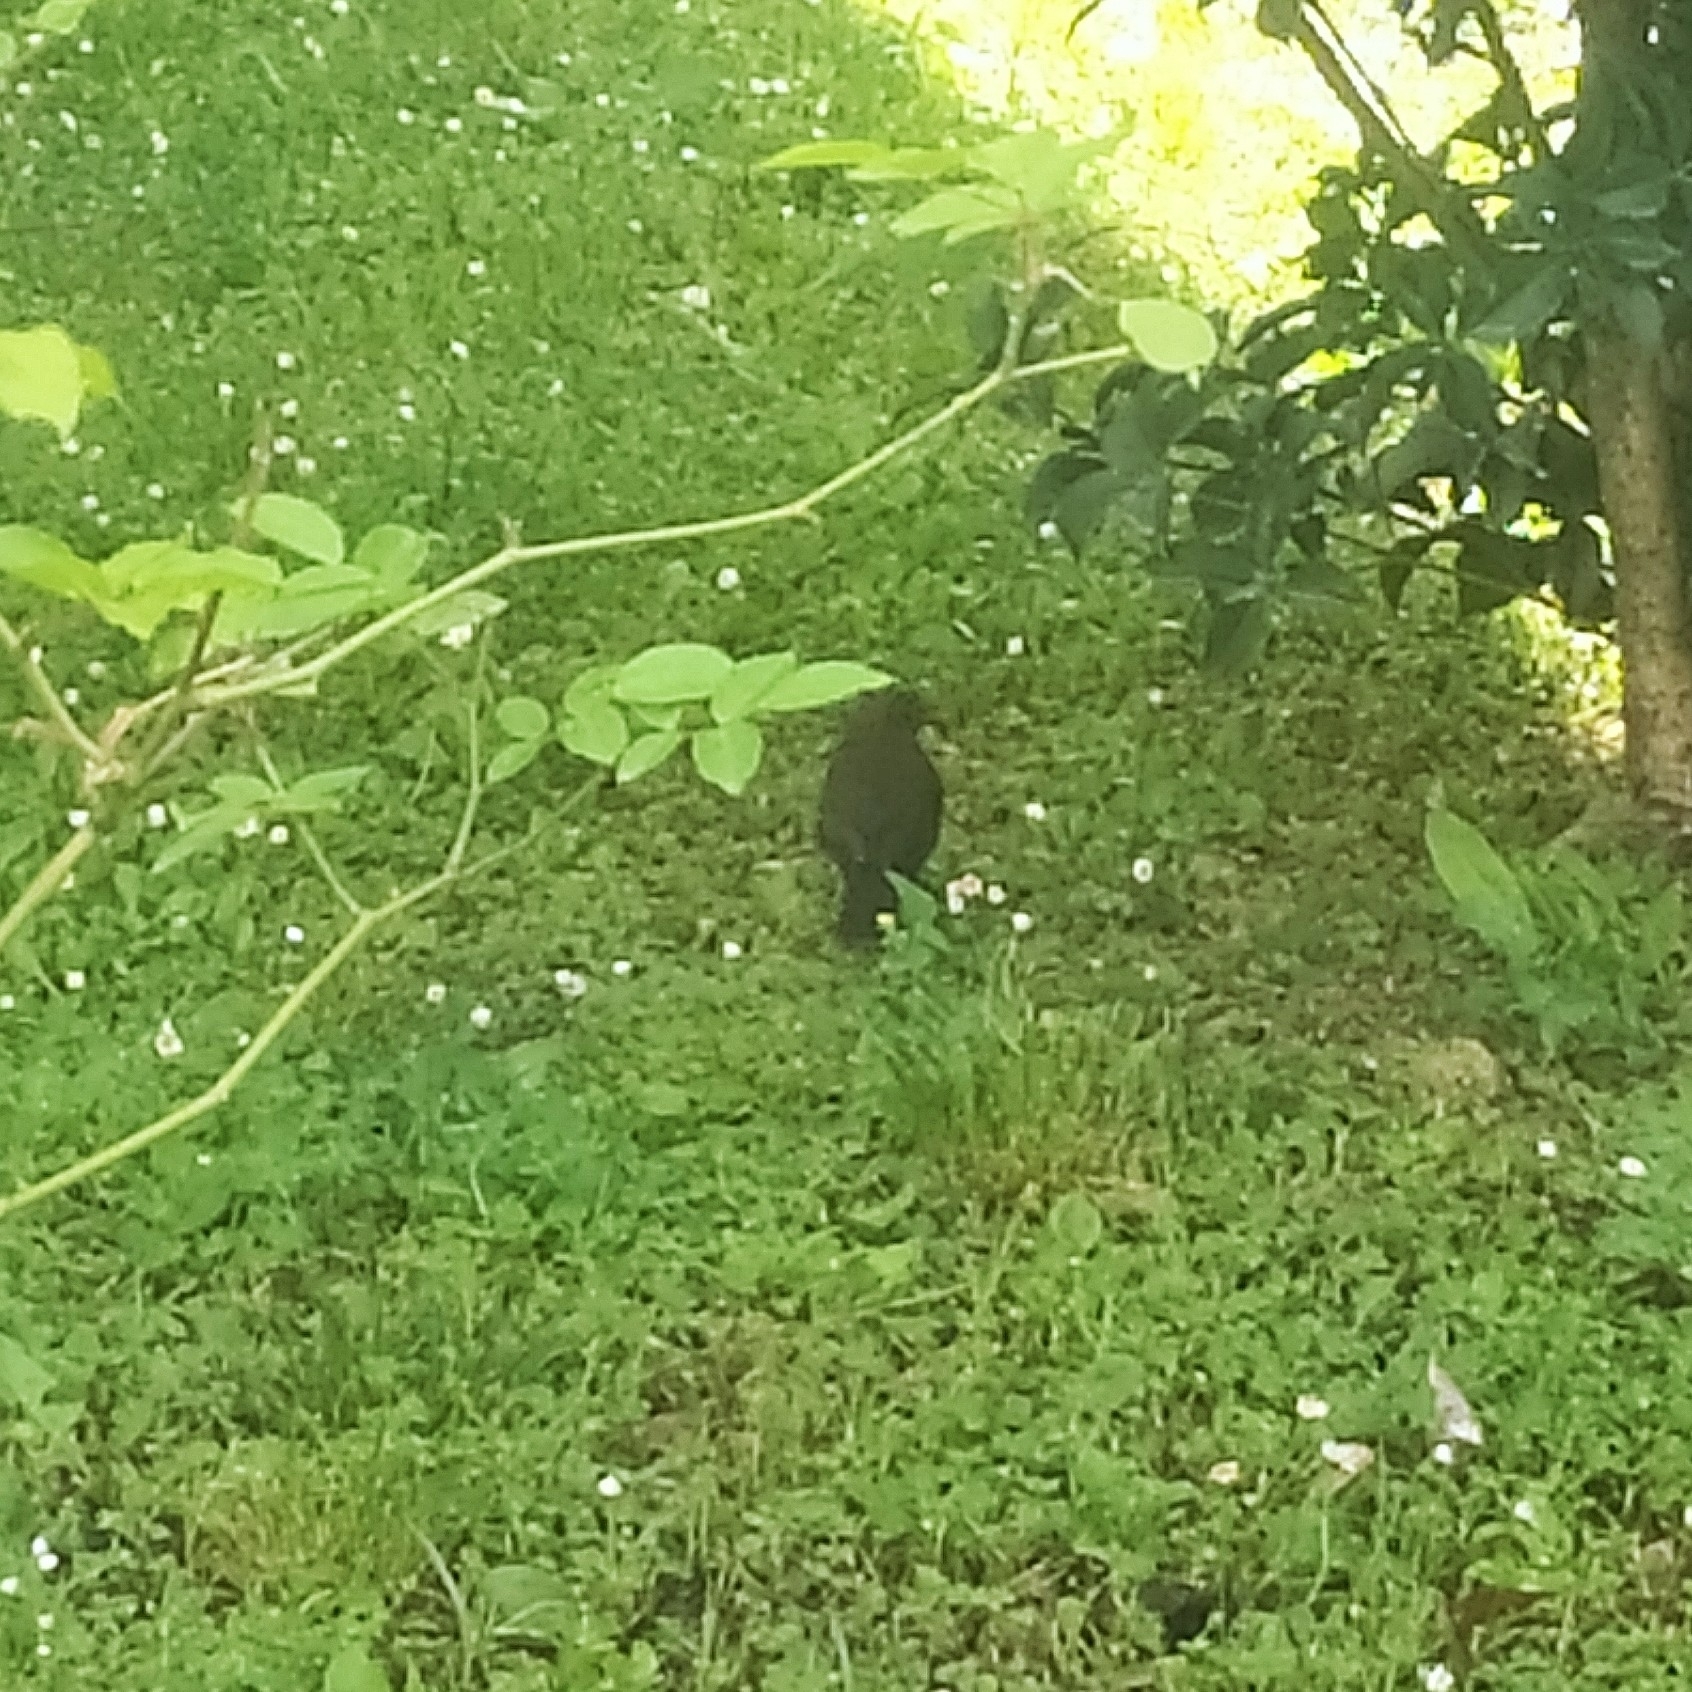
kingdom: Animalia
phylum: Chordata
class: Aves
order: Passeriformes
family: Turdidae
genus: Turdus
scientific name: Turdus merula
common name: Common blackbird
